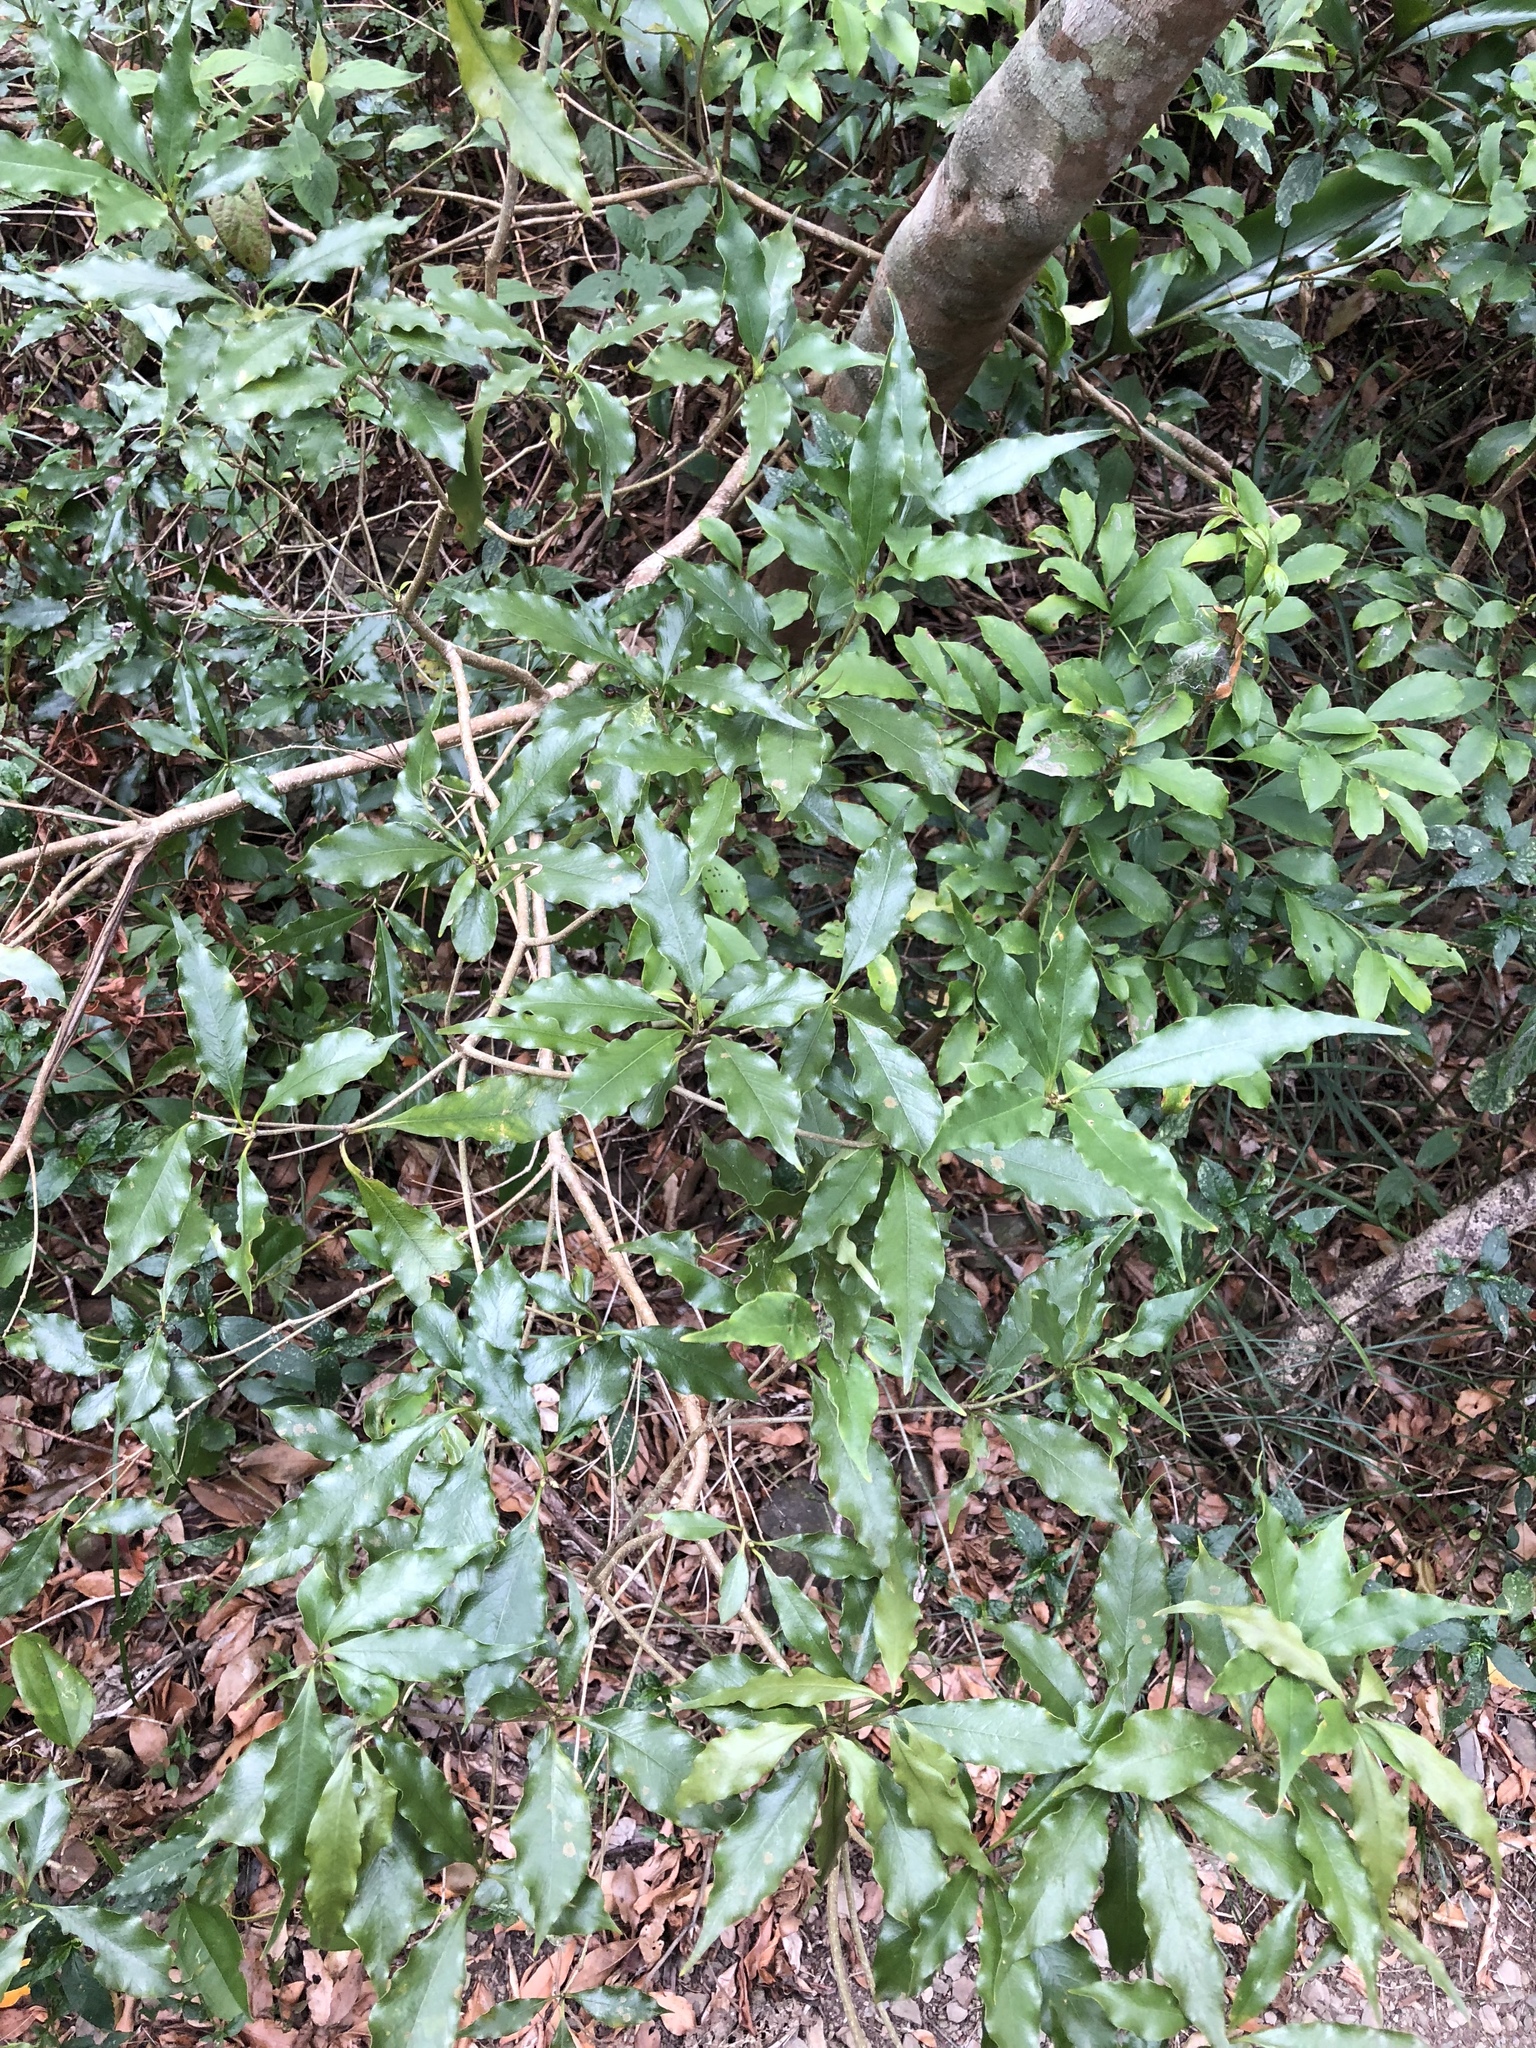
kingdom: Plantae
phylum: Tracheophyta
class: Magnoliopsida
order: Apiales
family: Pittosporaceae
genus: Pittosporum
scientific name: Pittosporum illicioides
